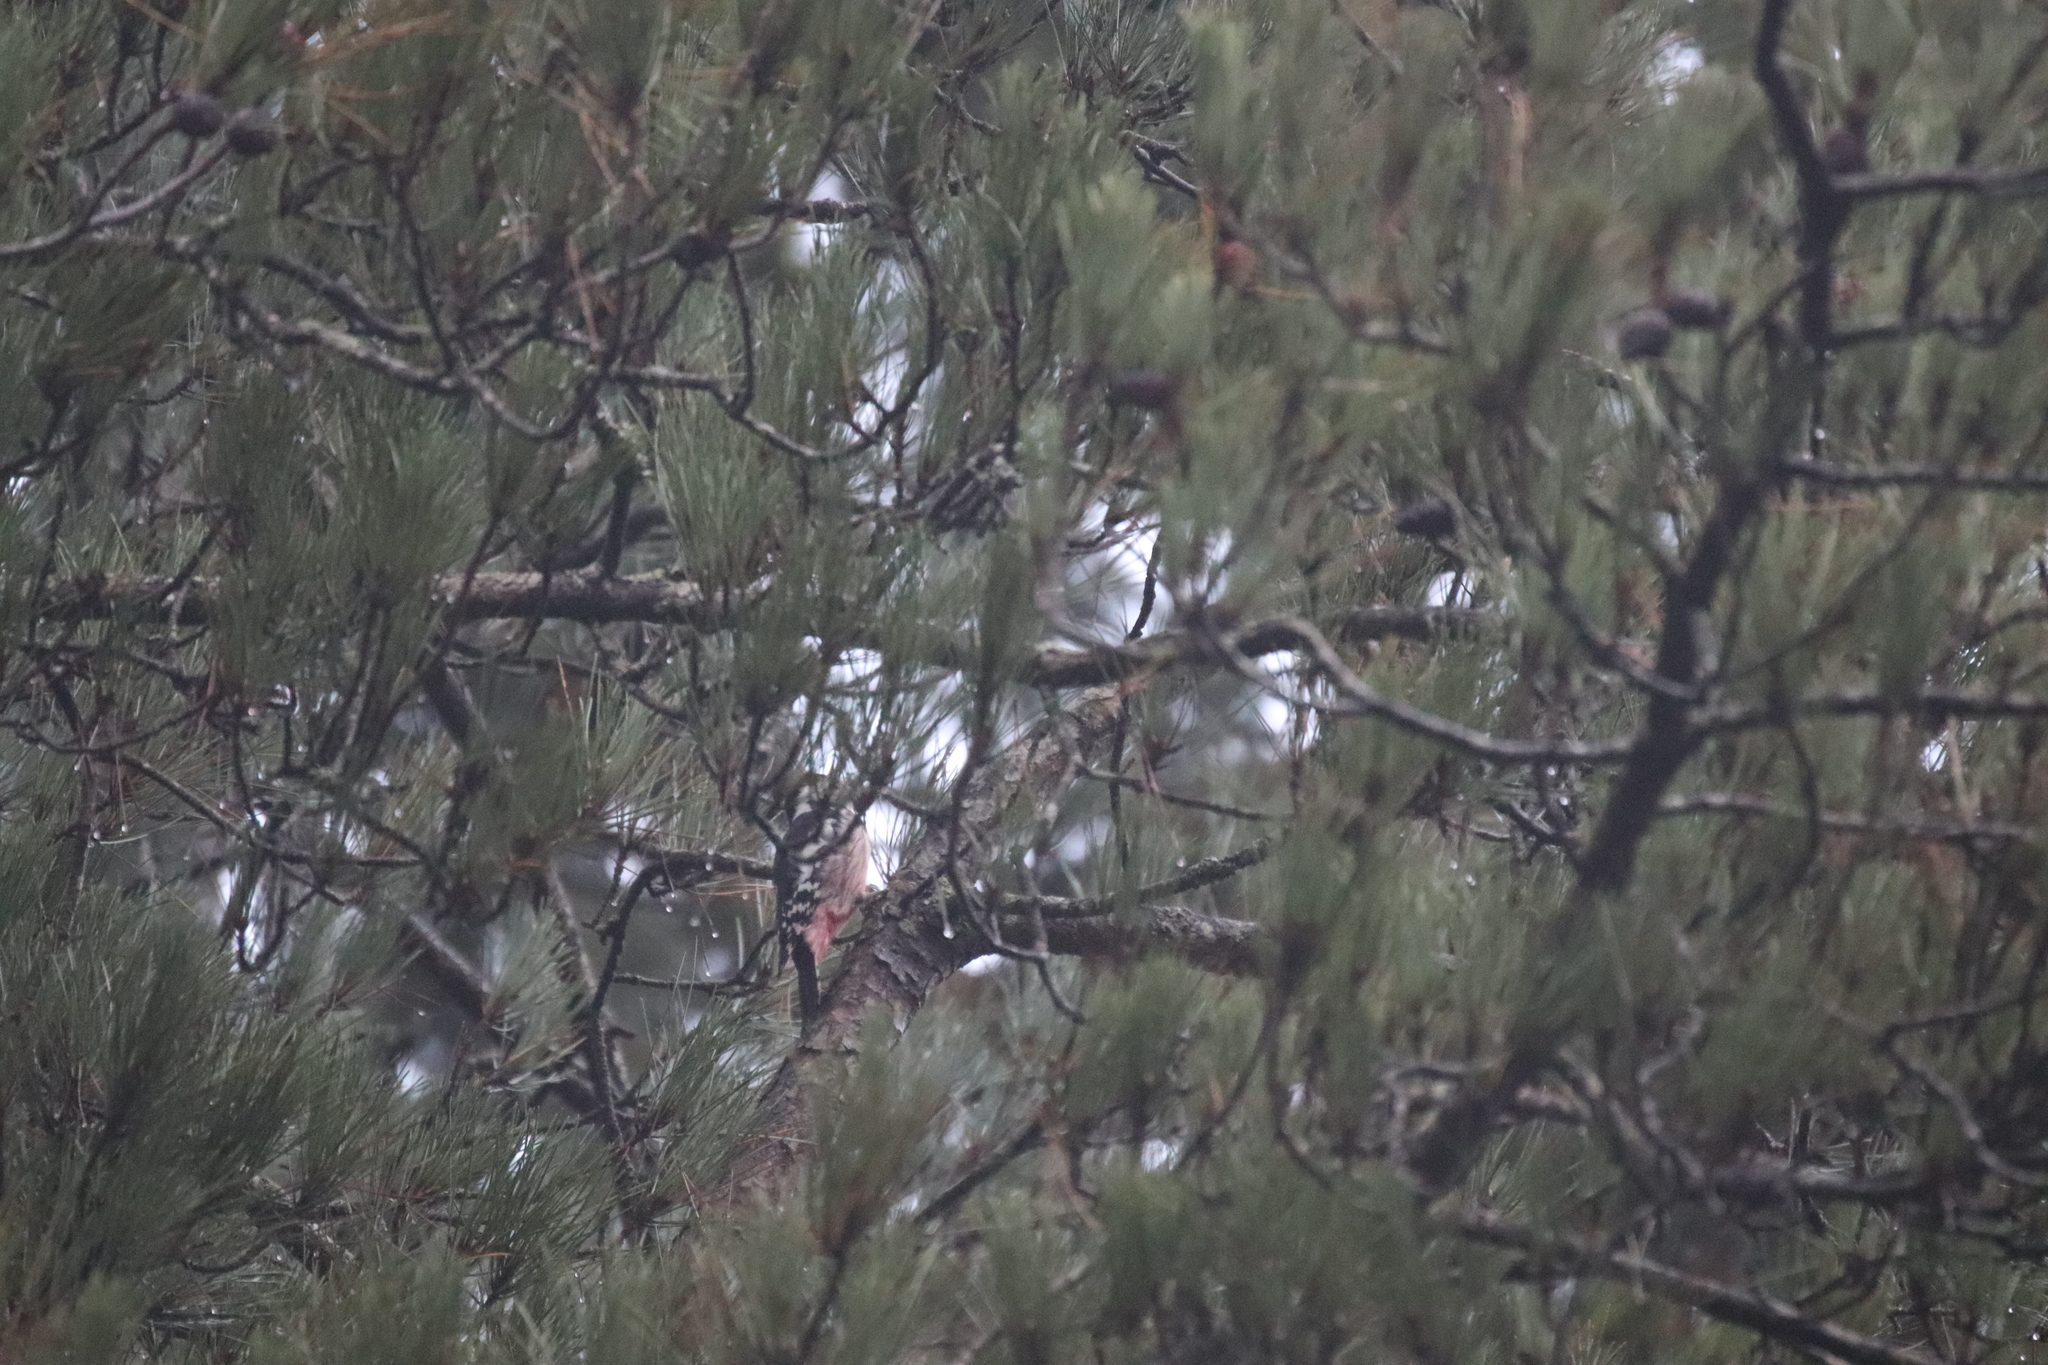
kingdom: Animalia
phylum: Chordata
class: Aves
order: Piciformes
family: Picidae
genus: Dendrocoptes
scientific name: Dendrocoptes medius
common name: Middle spotted woodpecker
